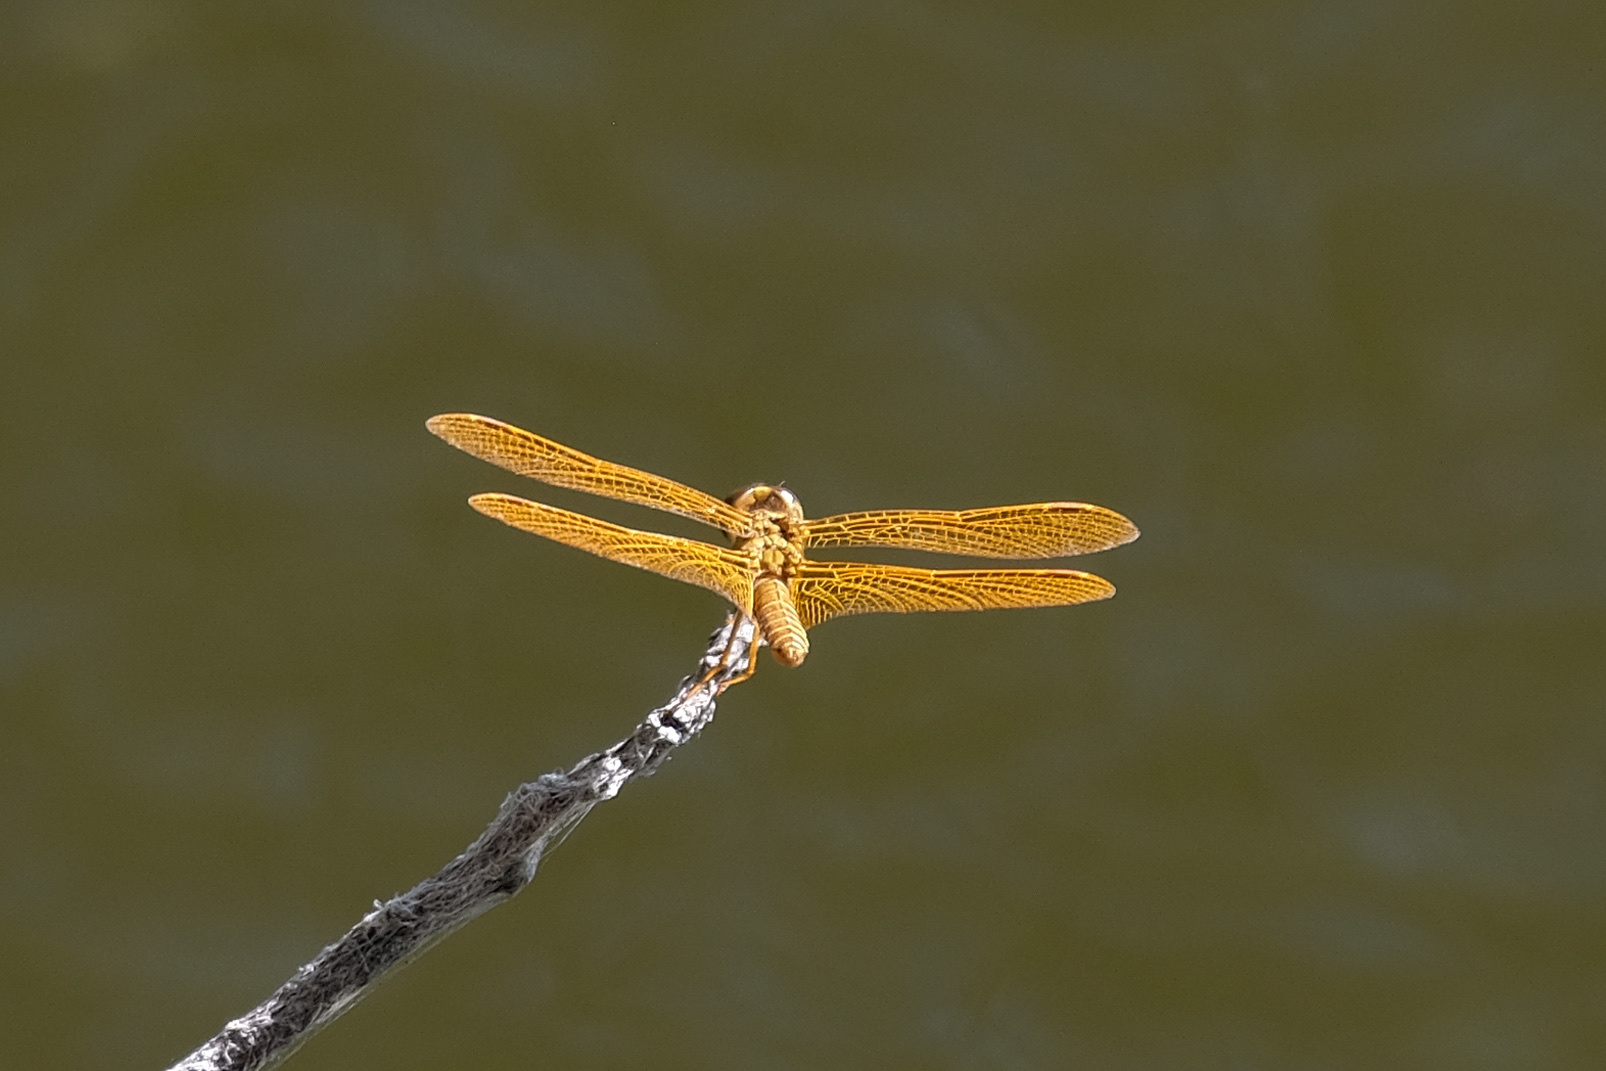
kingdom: Animalia
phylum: Arthropoda
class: Insecta
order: Odonata
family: Libellulidae
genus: Perithemis
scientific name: Perithemis intensa
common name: Mexican amberwing
